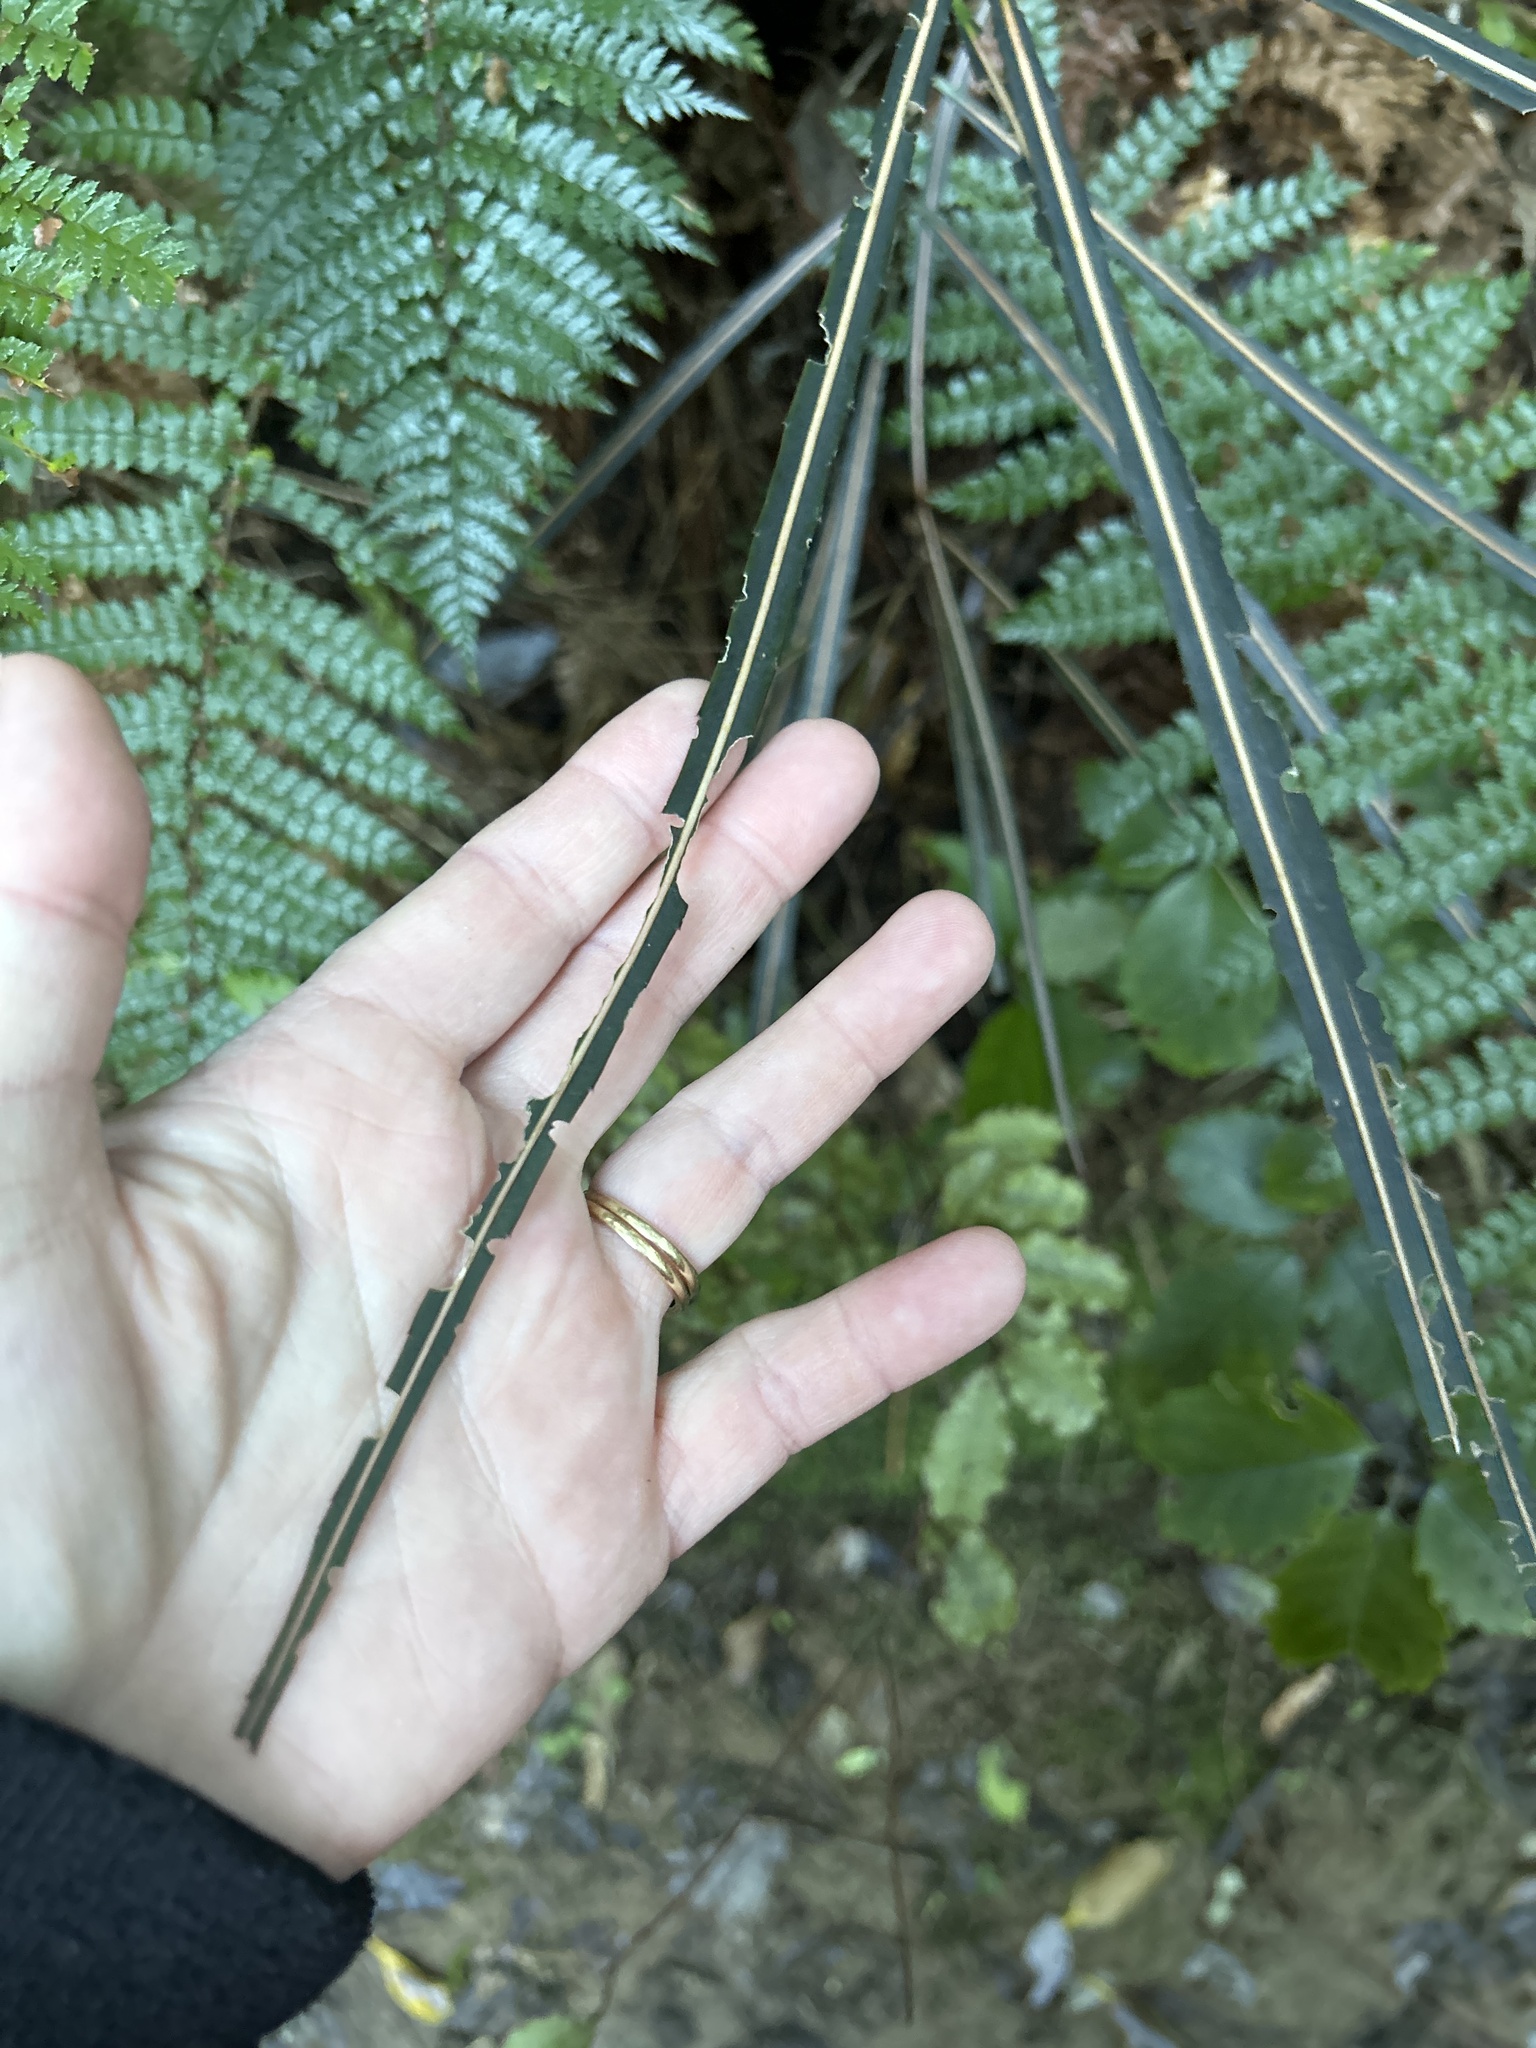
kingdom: Plantae
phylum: Tracheophyta
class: Magnoliopsida
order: Apiales
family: Araliaceae
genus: Pseudopanax
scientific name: Pseudopanax crassifolius
